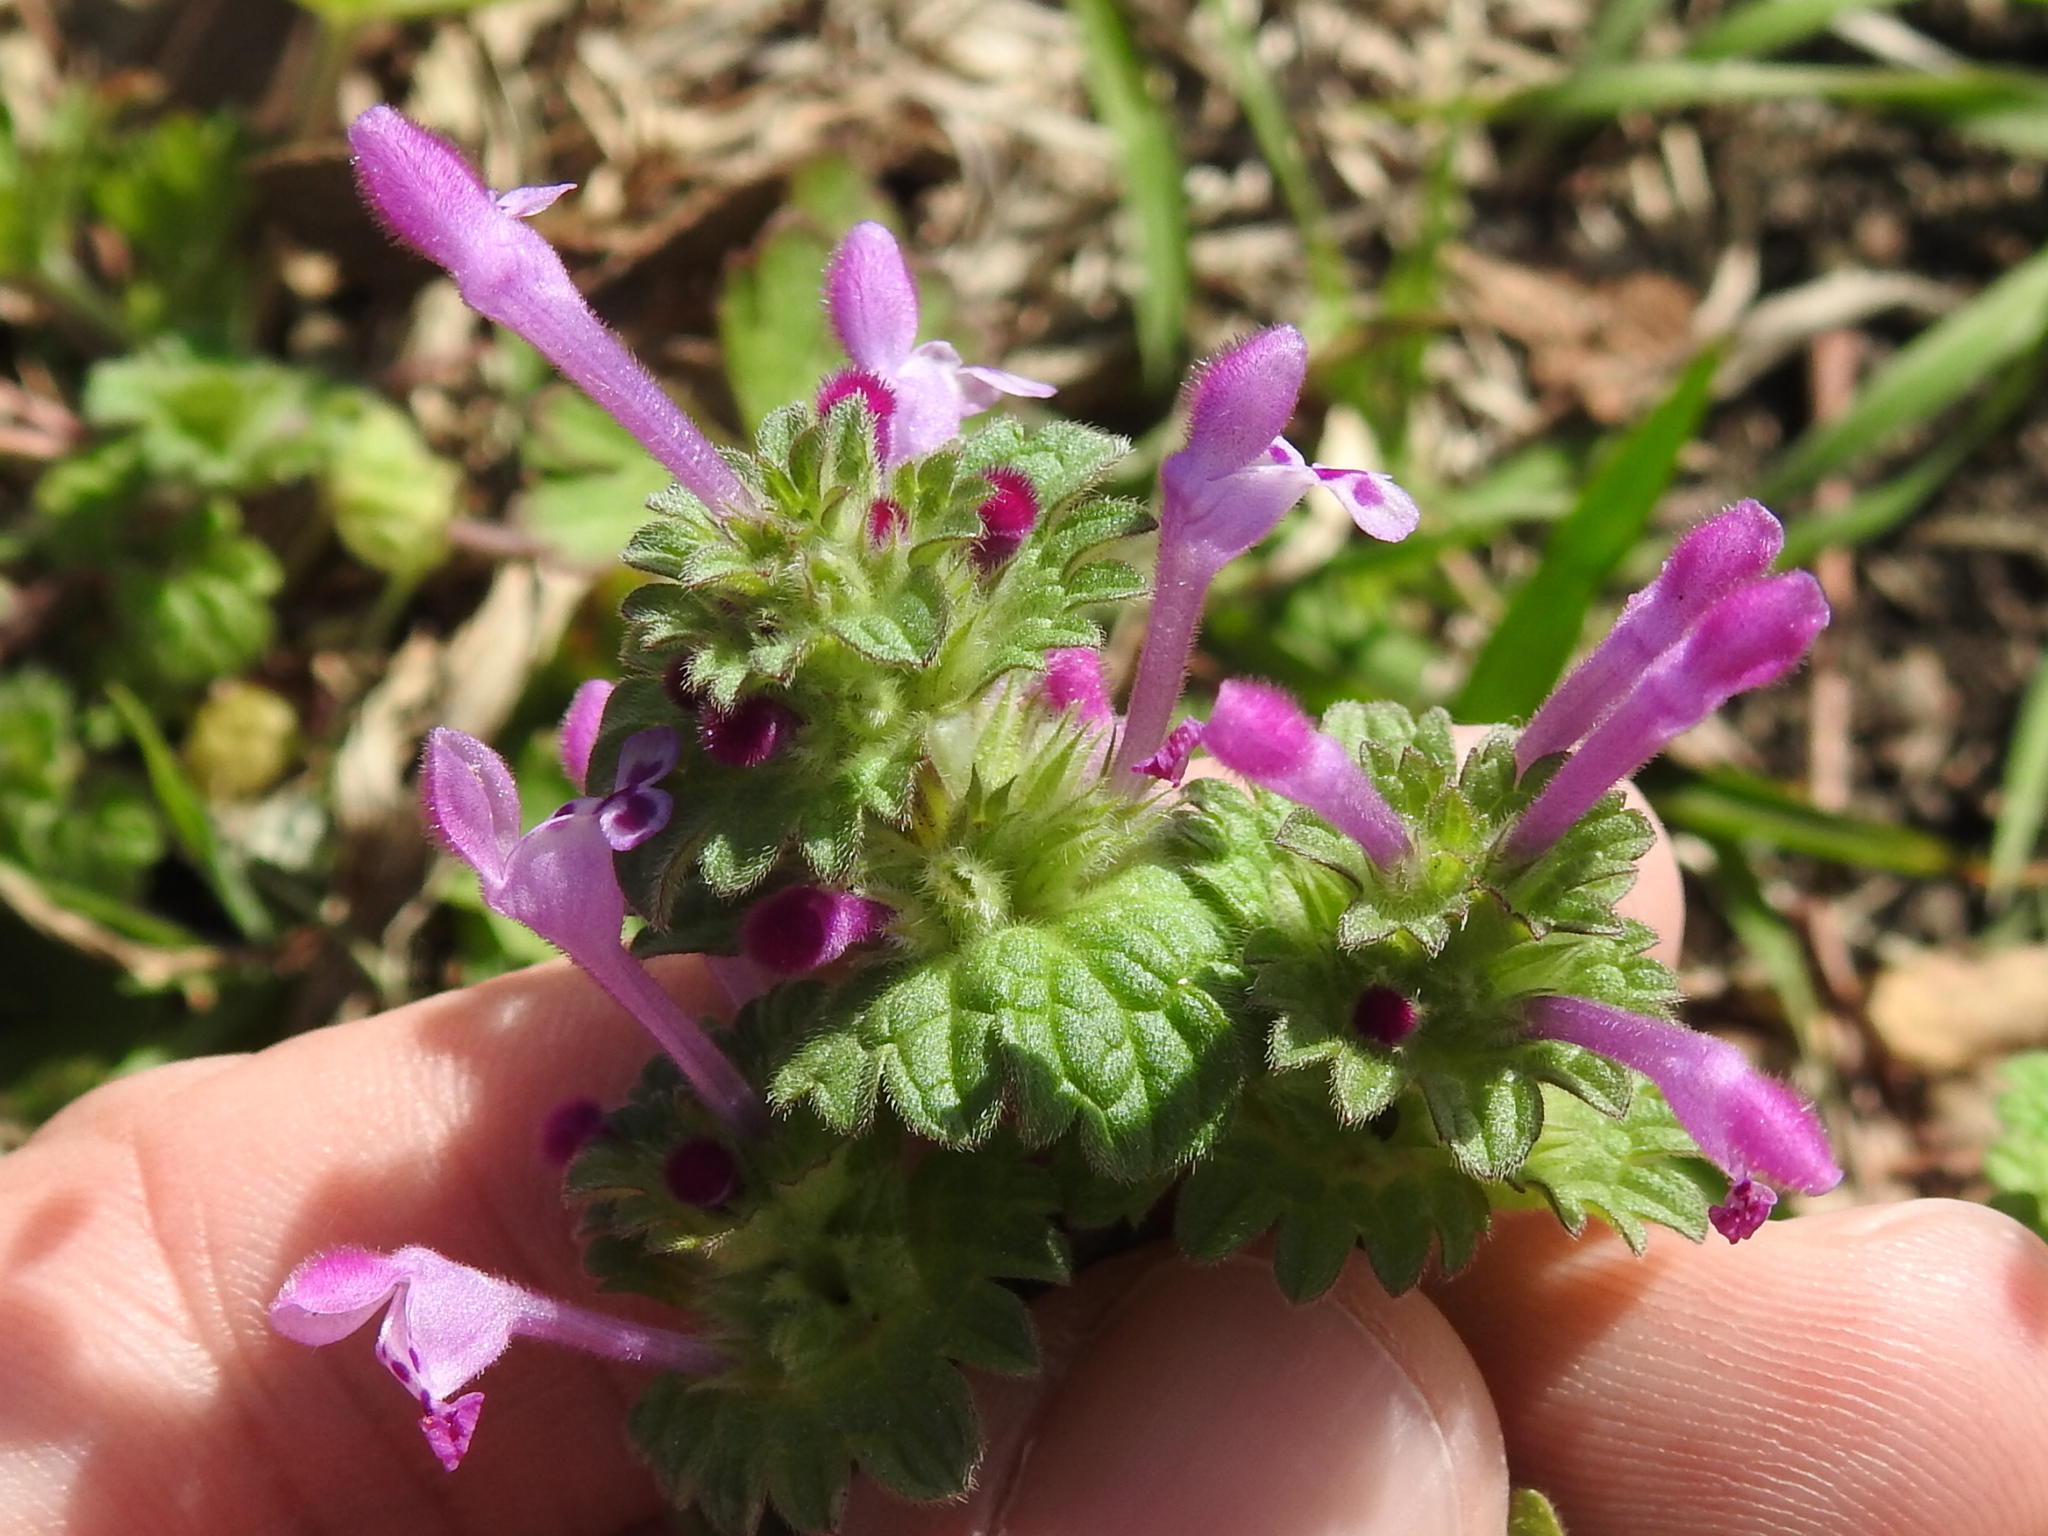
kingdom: Plantae
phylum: Tracheophyta
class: Magnoliopsida
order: Lamiales
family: Lamiaceae
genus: Lamium
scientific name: Lamium amplexicaule
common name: Henbit dead-nettle
